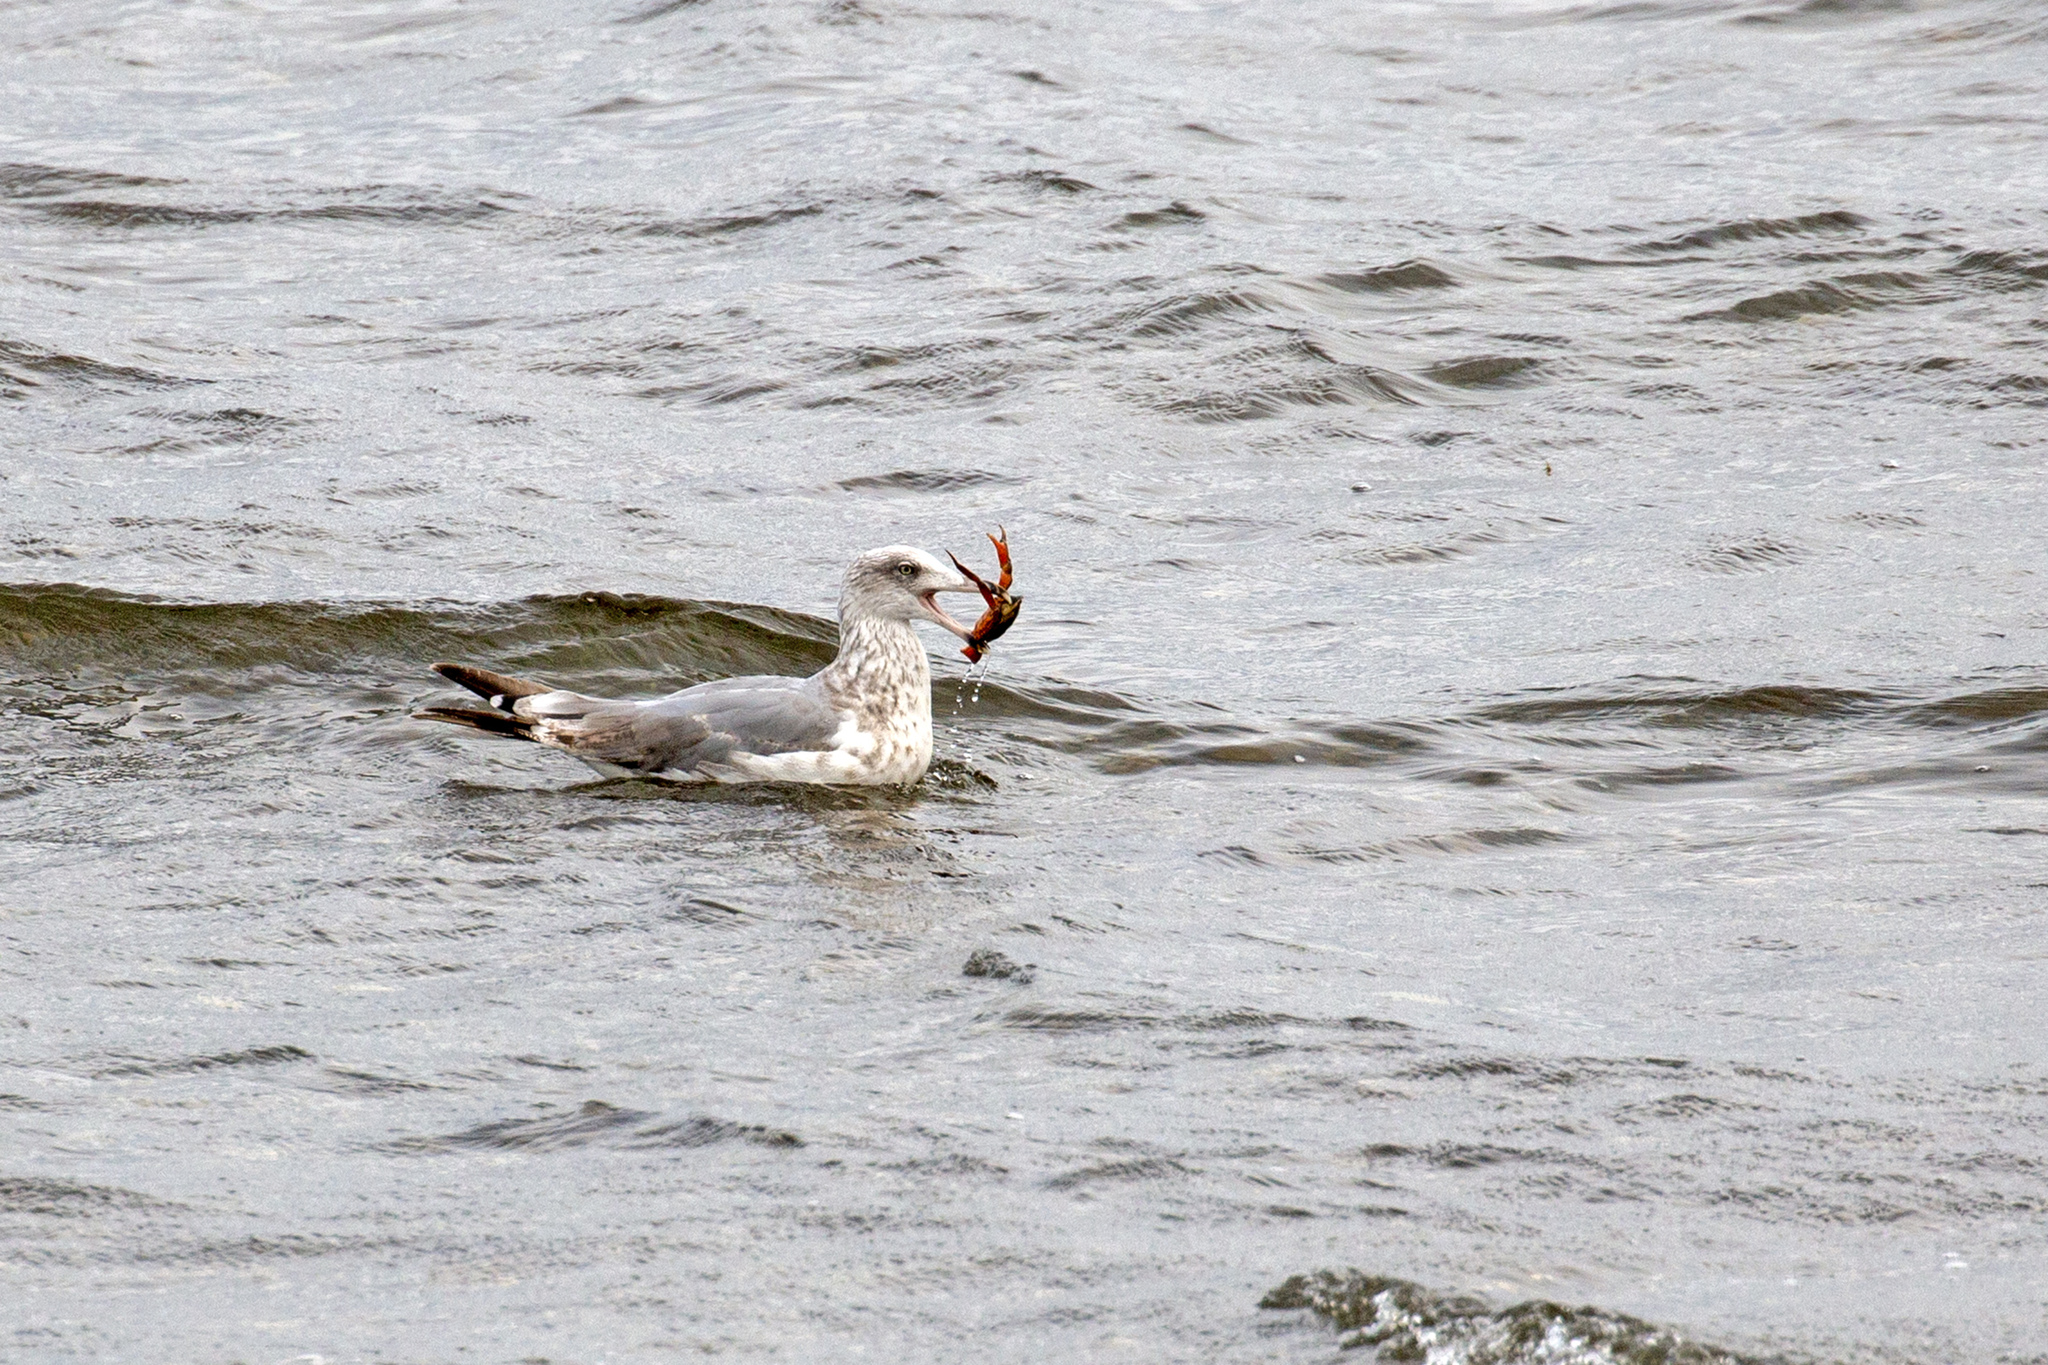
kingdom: Animalia
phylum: Chordata
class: Aves
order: Charadriiformes
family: Laridae
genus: Larus
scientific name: Larus argentatus
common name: Herring gull
